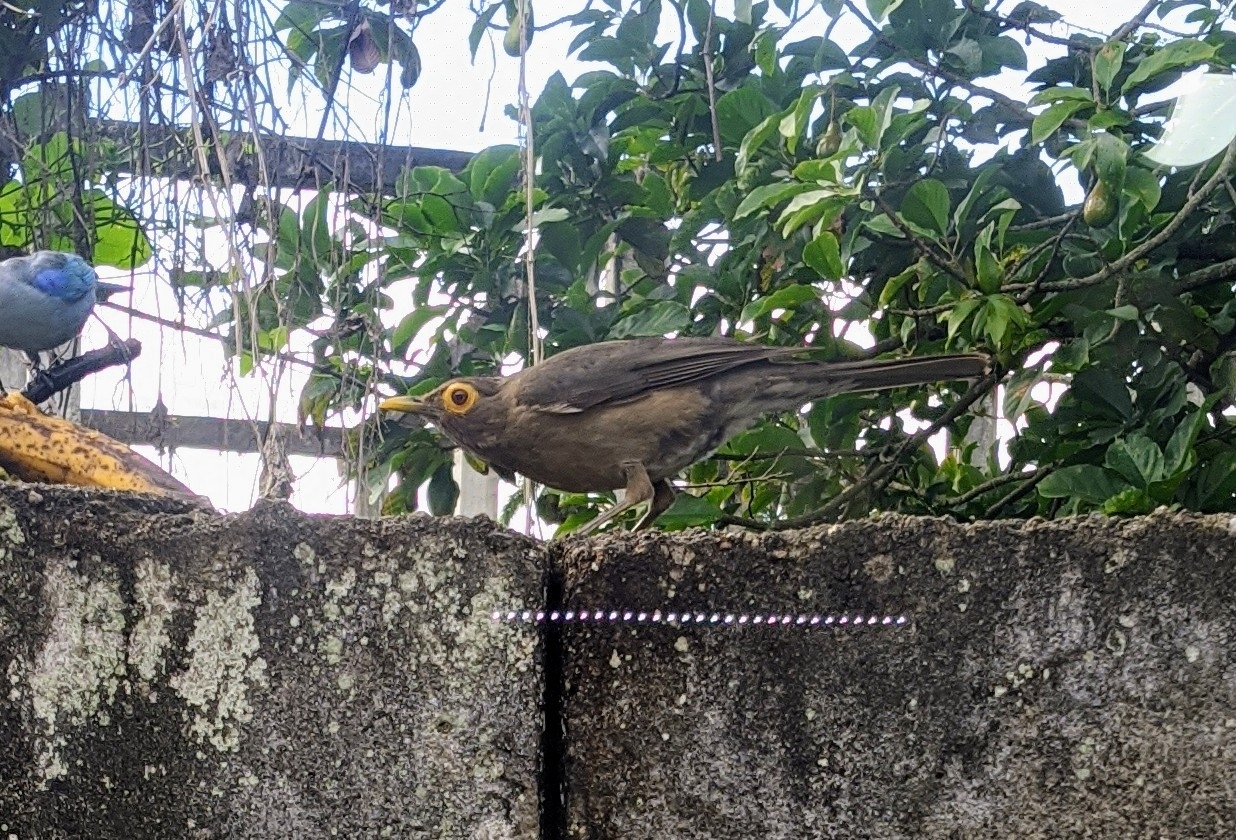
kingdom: Animalia
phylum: Chordata
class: Aves
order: Passeriformes
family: Turdidae
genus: Turdus
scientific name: Turdus nudigenis
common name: Spectacled thrush
